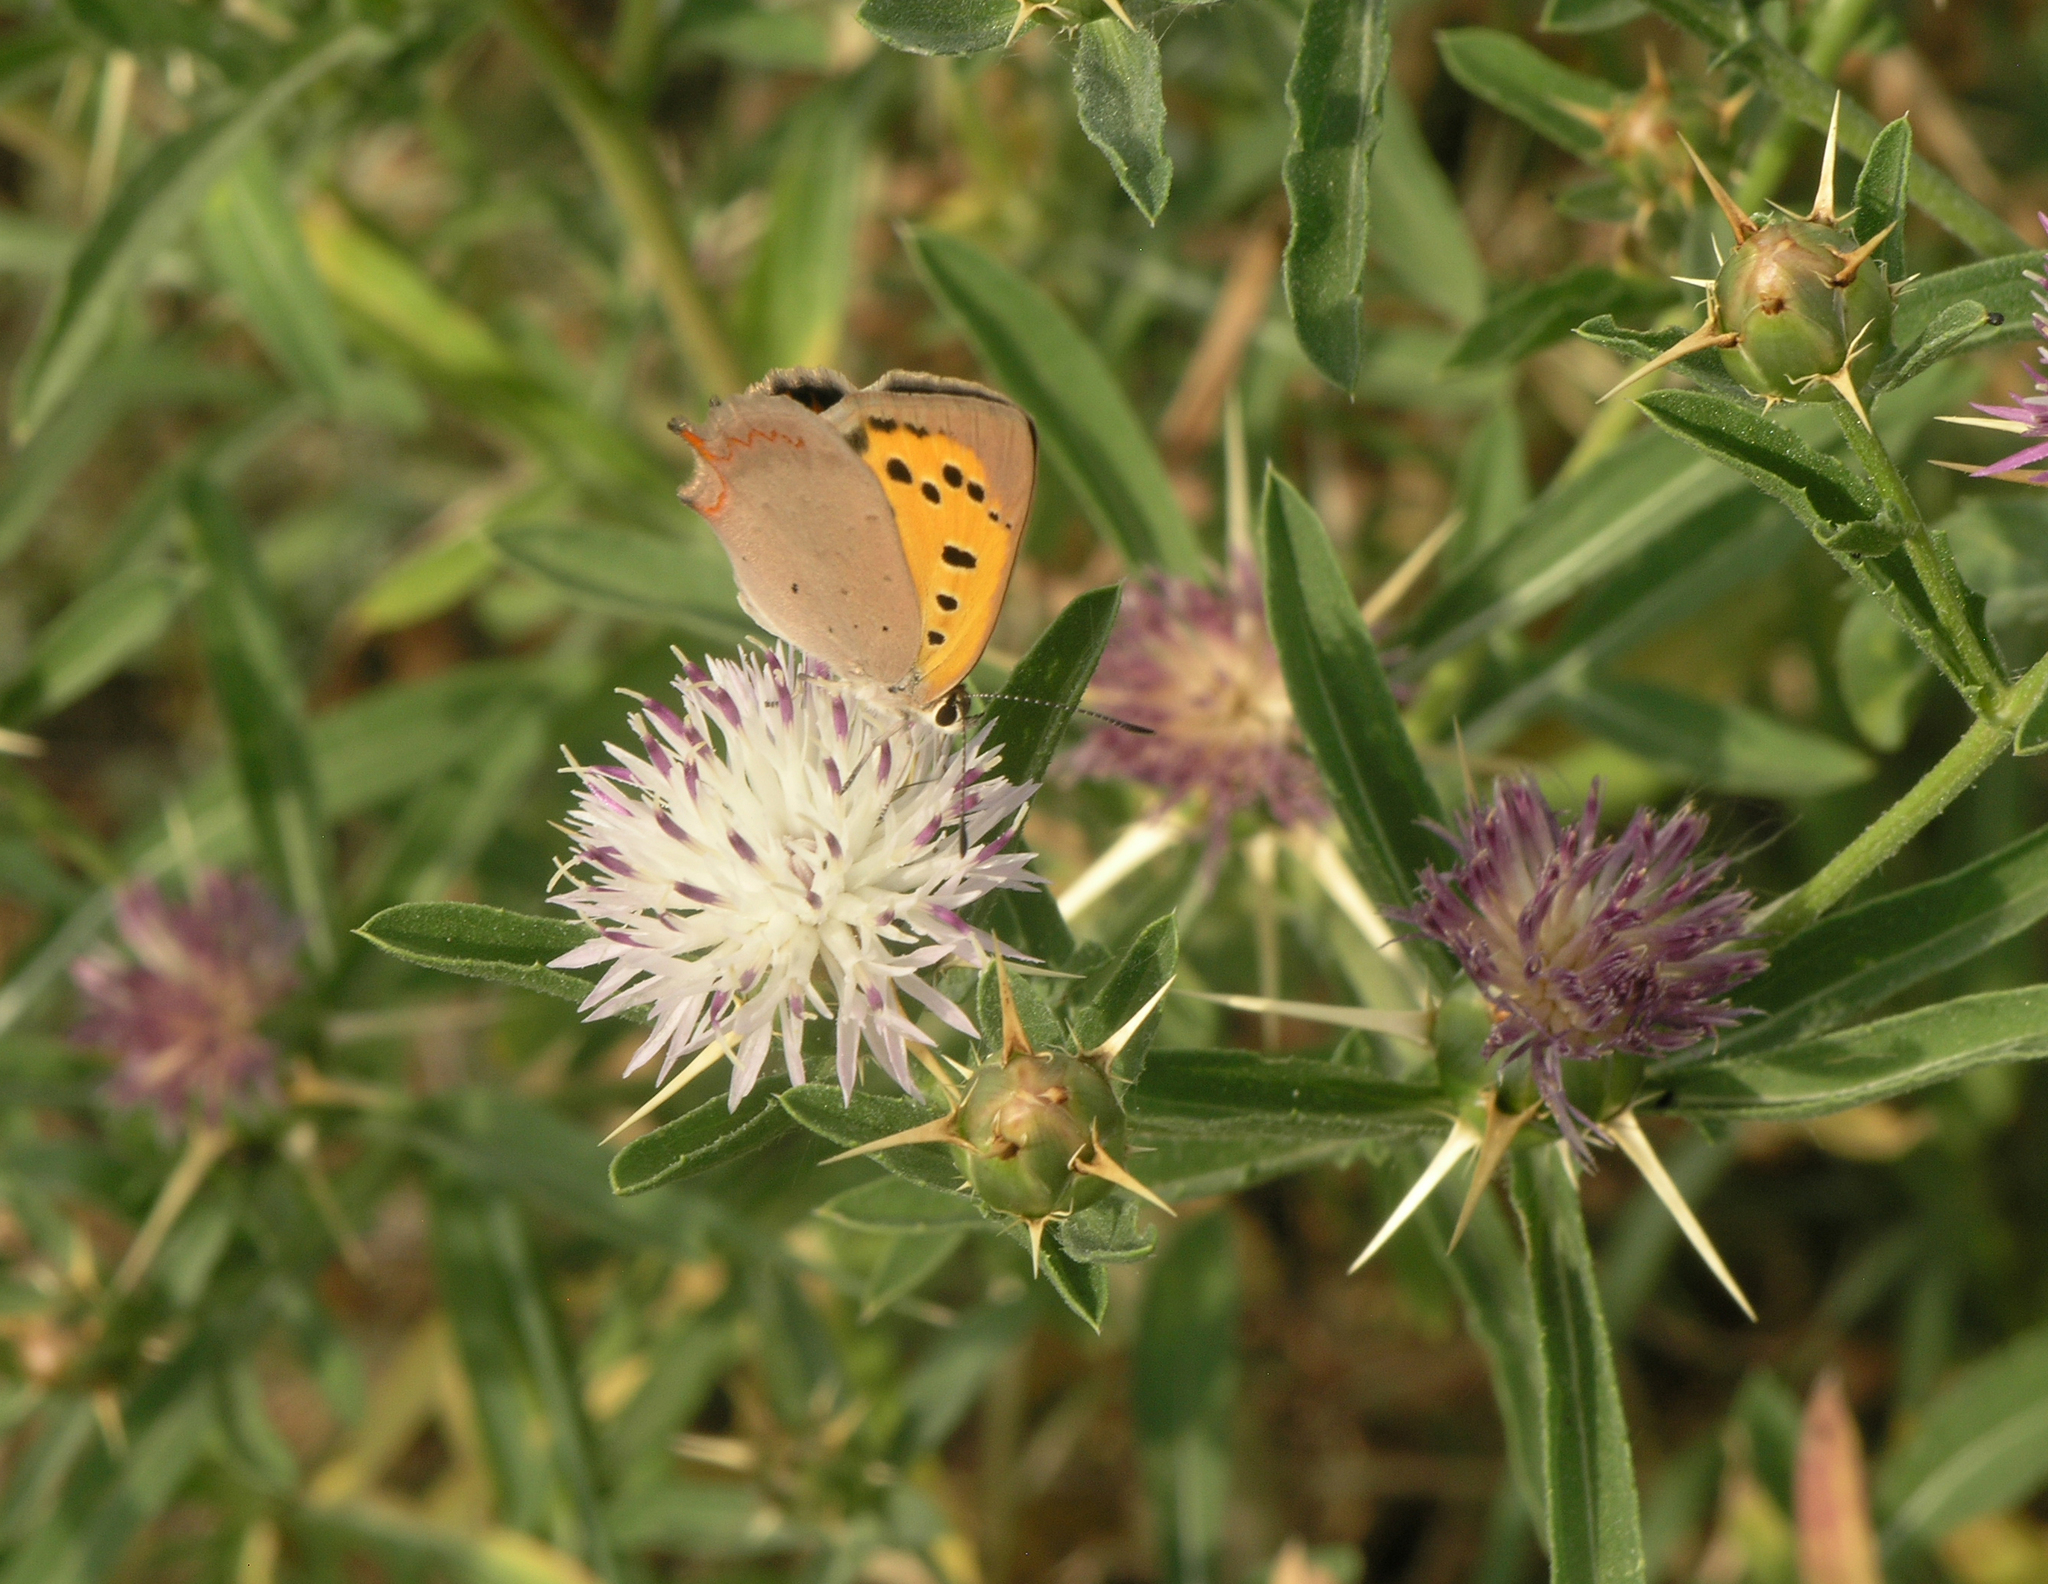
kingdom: Animalia
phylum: Arthropoda
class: Insecta
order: Lepidoptera
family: Lycaenidae
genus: Lycaena
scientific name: Lycaena phlaeas
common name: Small copper
